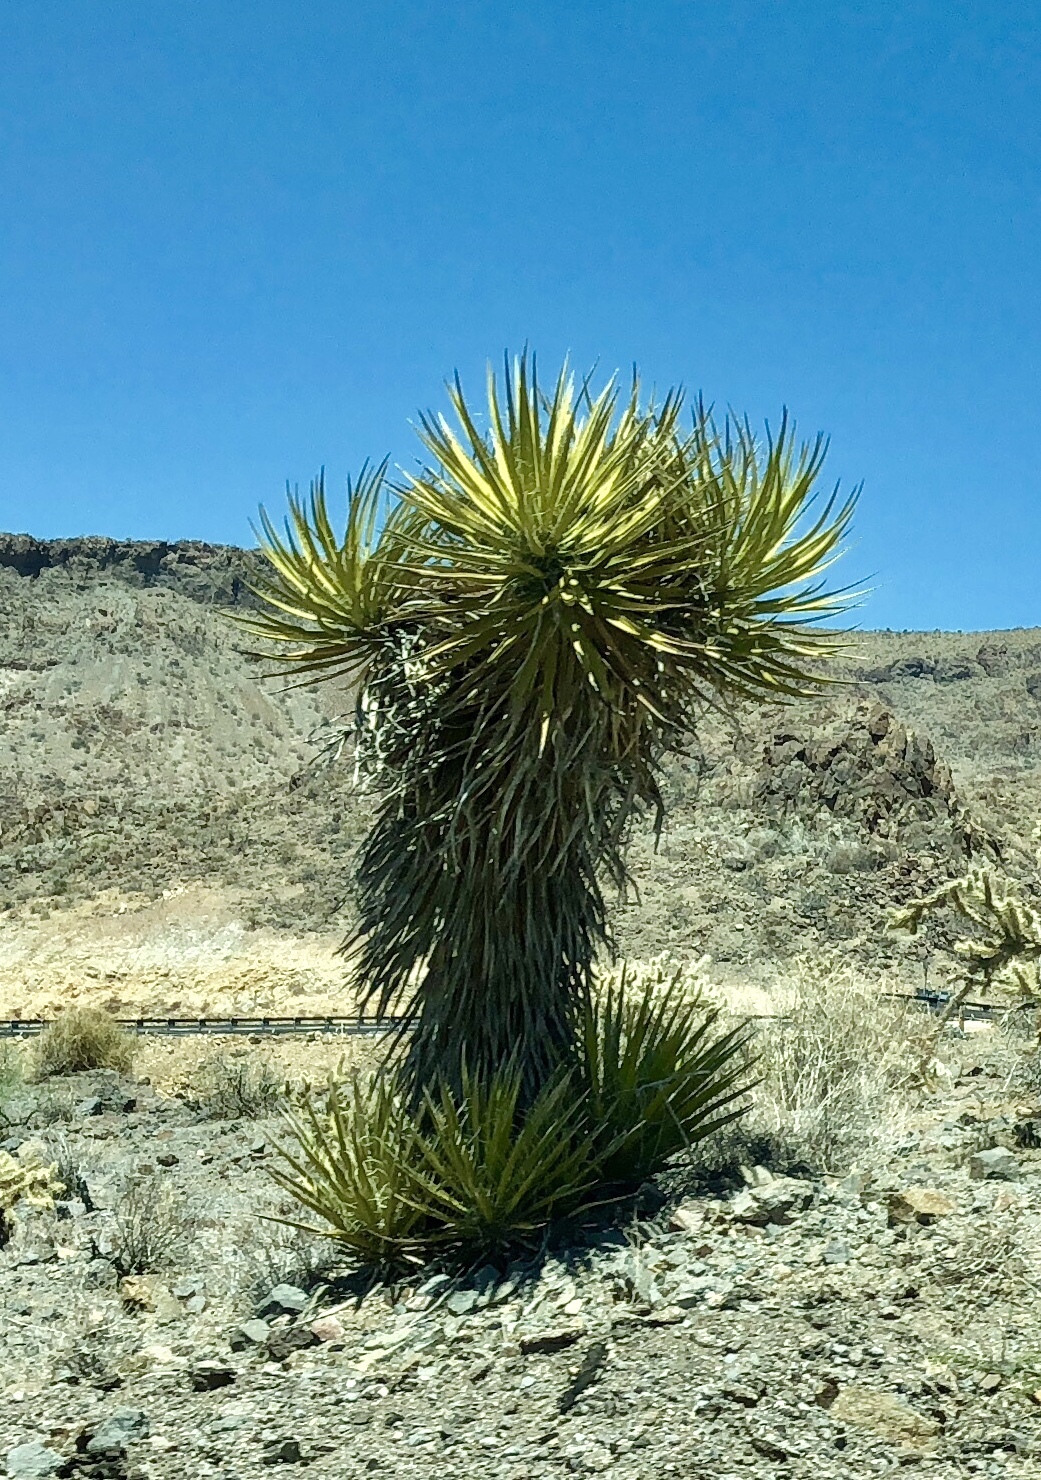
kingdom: Plantae
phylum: Tracheophyta
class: Liliopsida
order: Asparagales
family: Asparagaceae
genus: Yucca
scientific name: Yucca schidigera
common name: Mojave yucca
